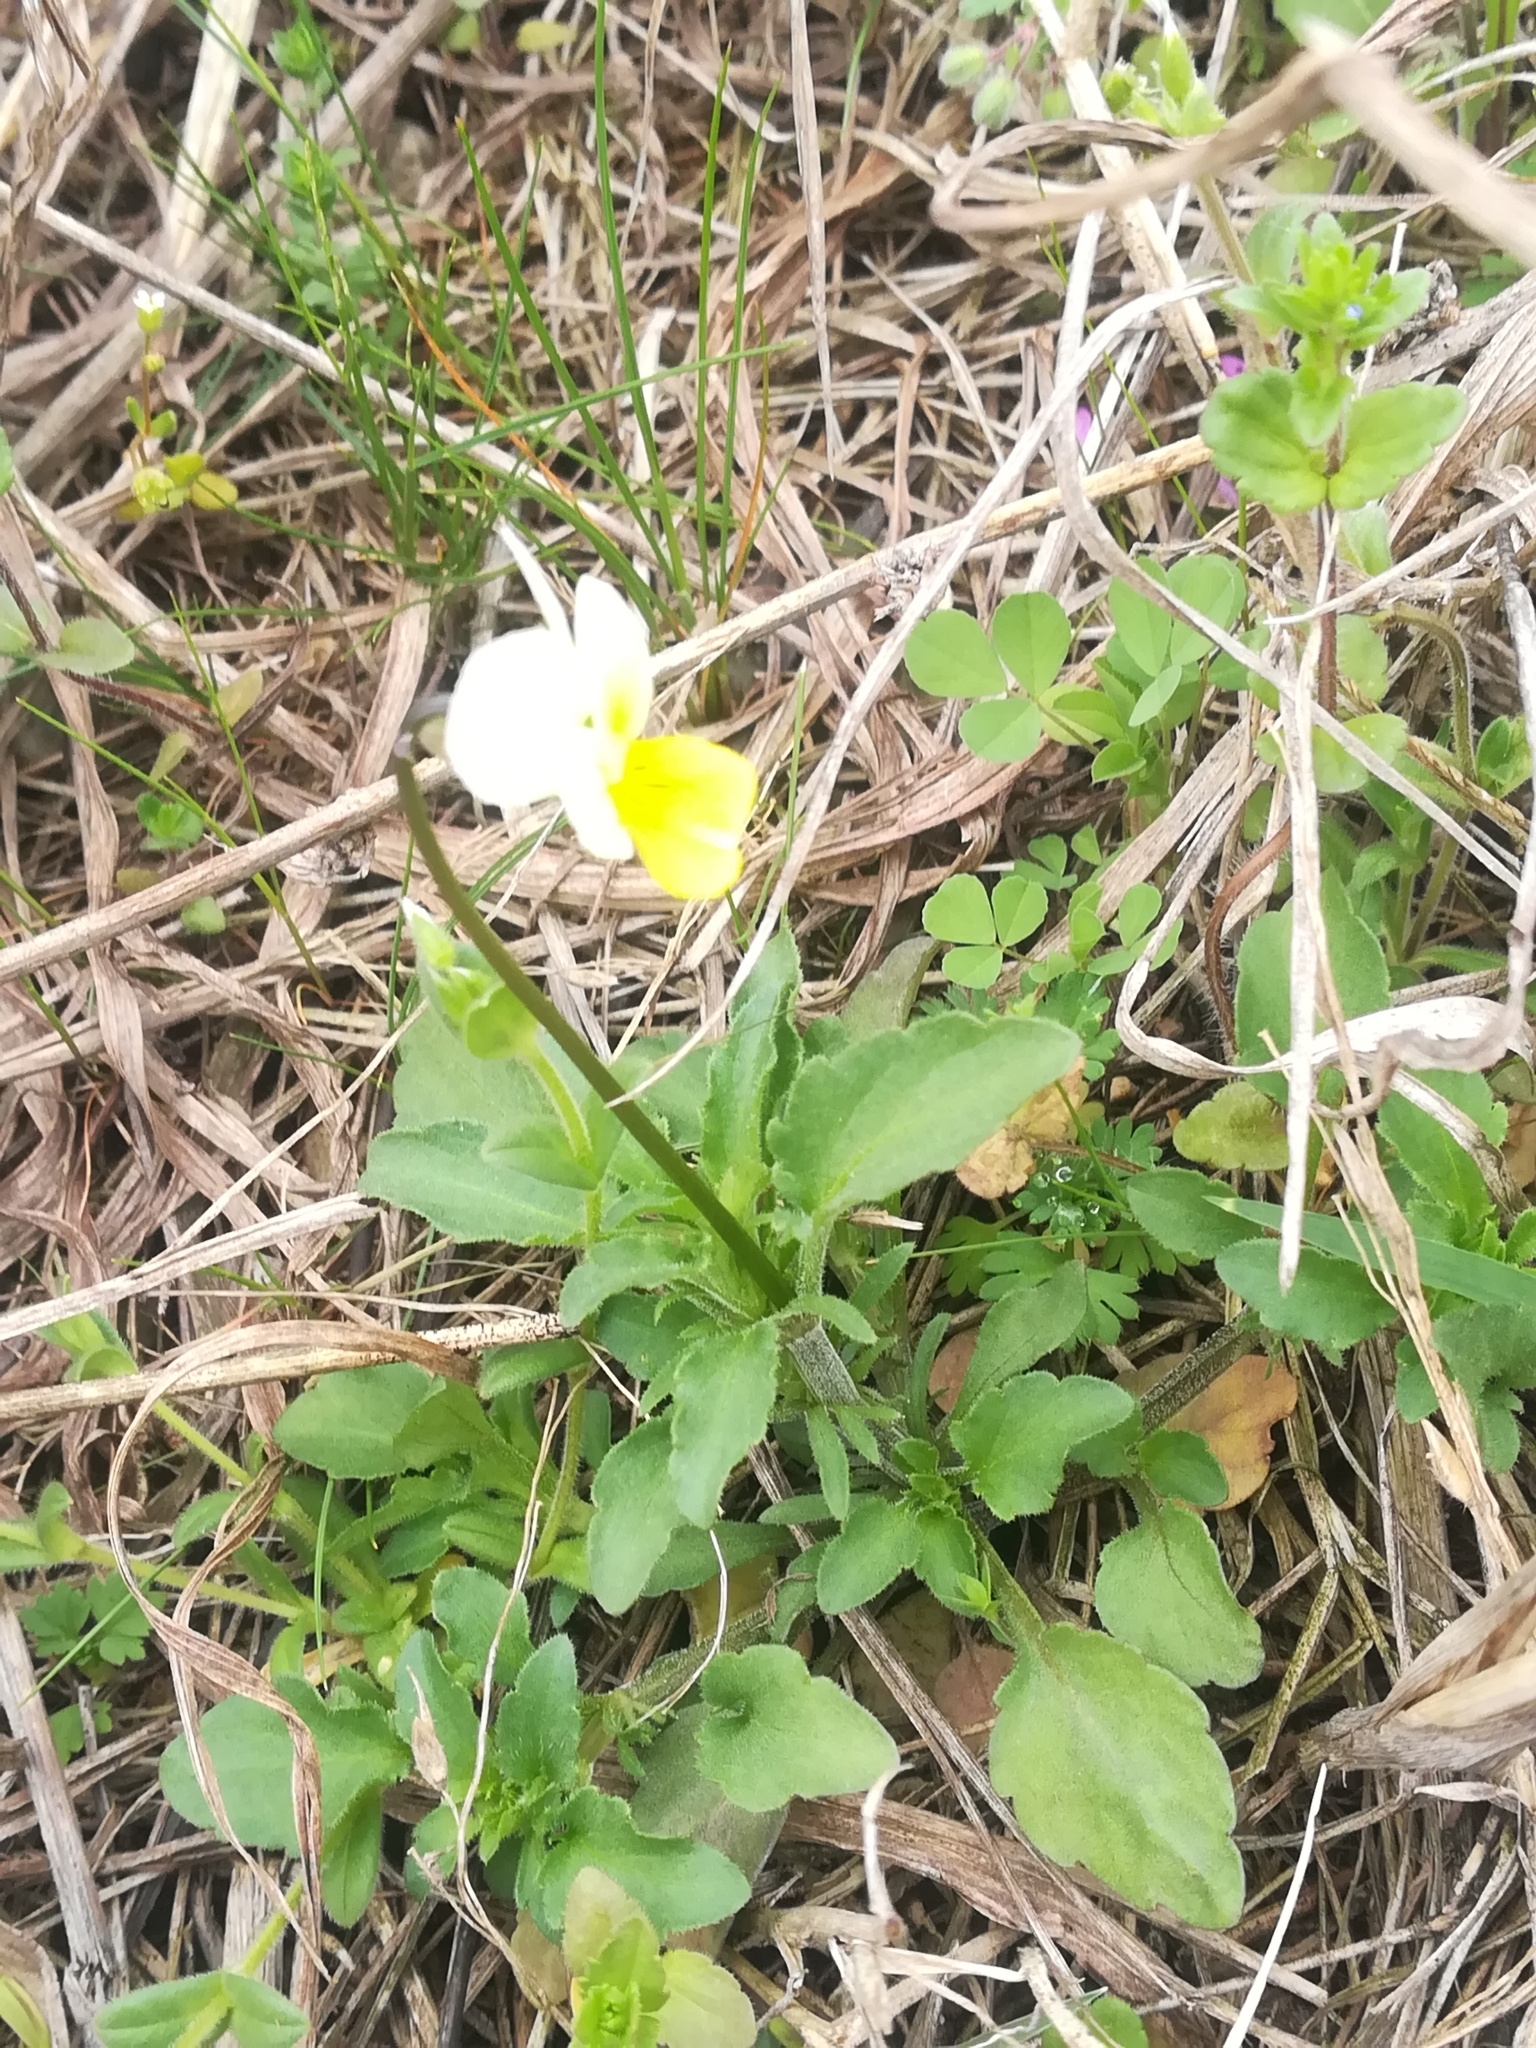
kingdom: Plantae
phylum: Tracheophyta
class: Magnoliopsida
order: Malpighiales
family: Violaceae
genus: Viola
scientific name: Viola arvensis
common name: Field pansy
